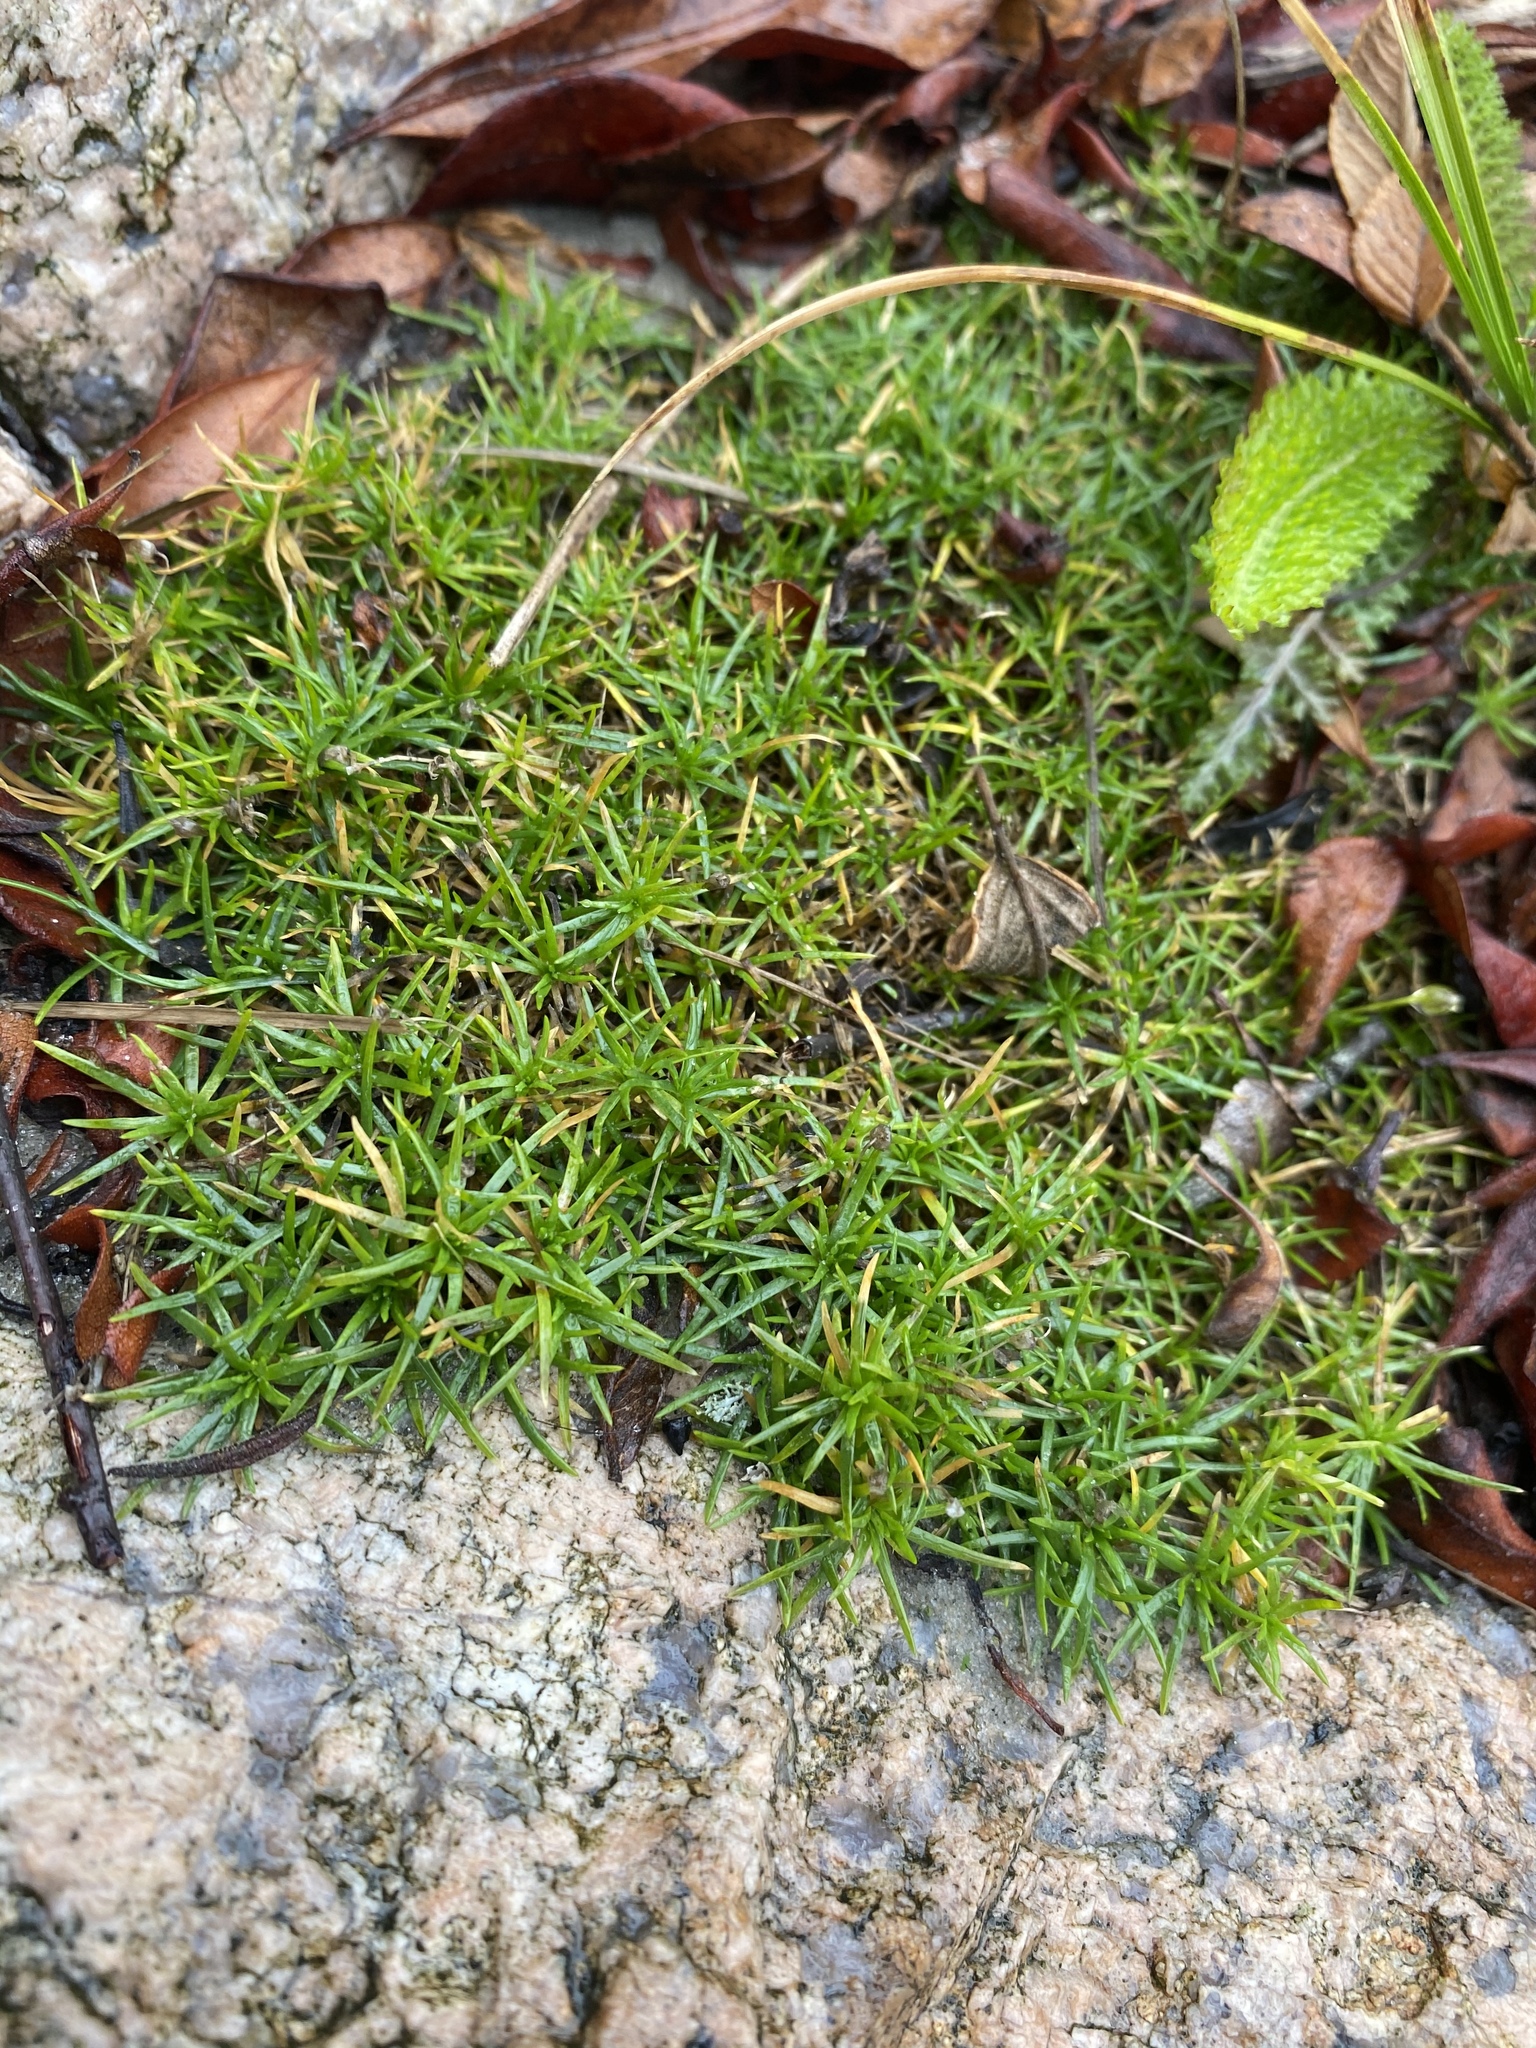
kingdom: Plantae
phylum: Tracheophyta
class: Magnoliopsida
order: Caryophyllales
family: Caryophyllaceae
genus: Sagina
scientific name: Sagina procumbens
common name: Procumbent pearlwort
